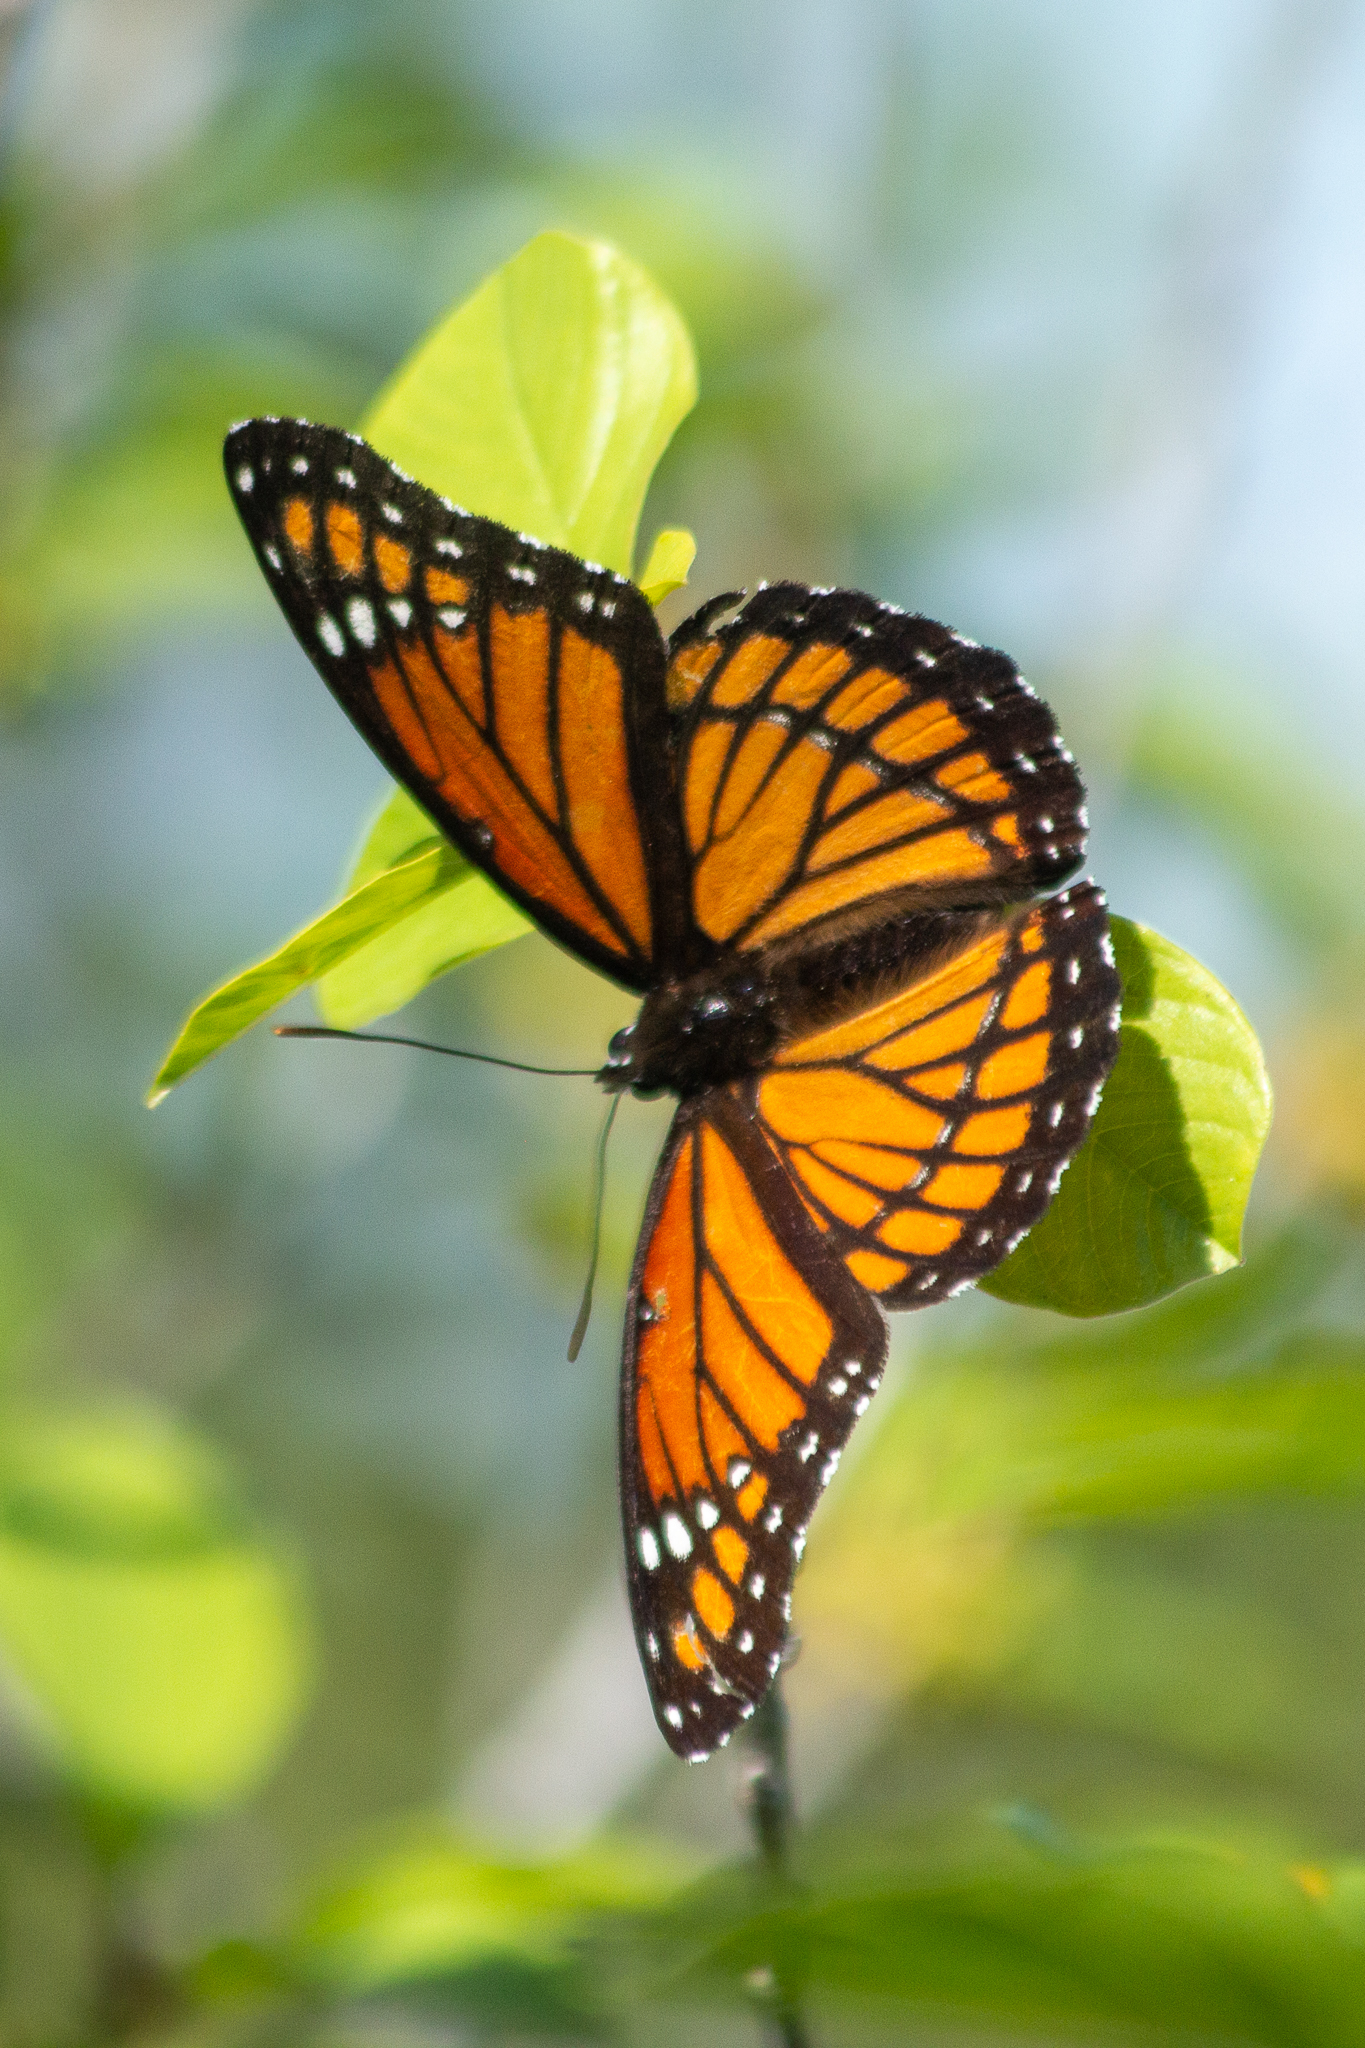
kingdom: Animalia
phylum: Arthropoda
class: Insecta
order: Lepidoptera
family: Nymphalidae
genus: Limenitis
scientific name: Limenitis archippus
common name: Viceroy
